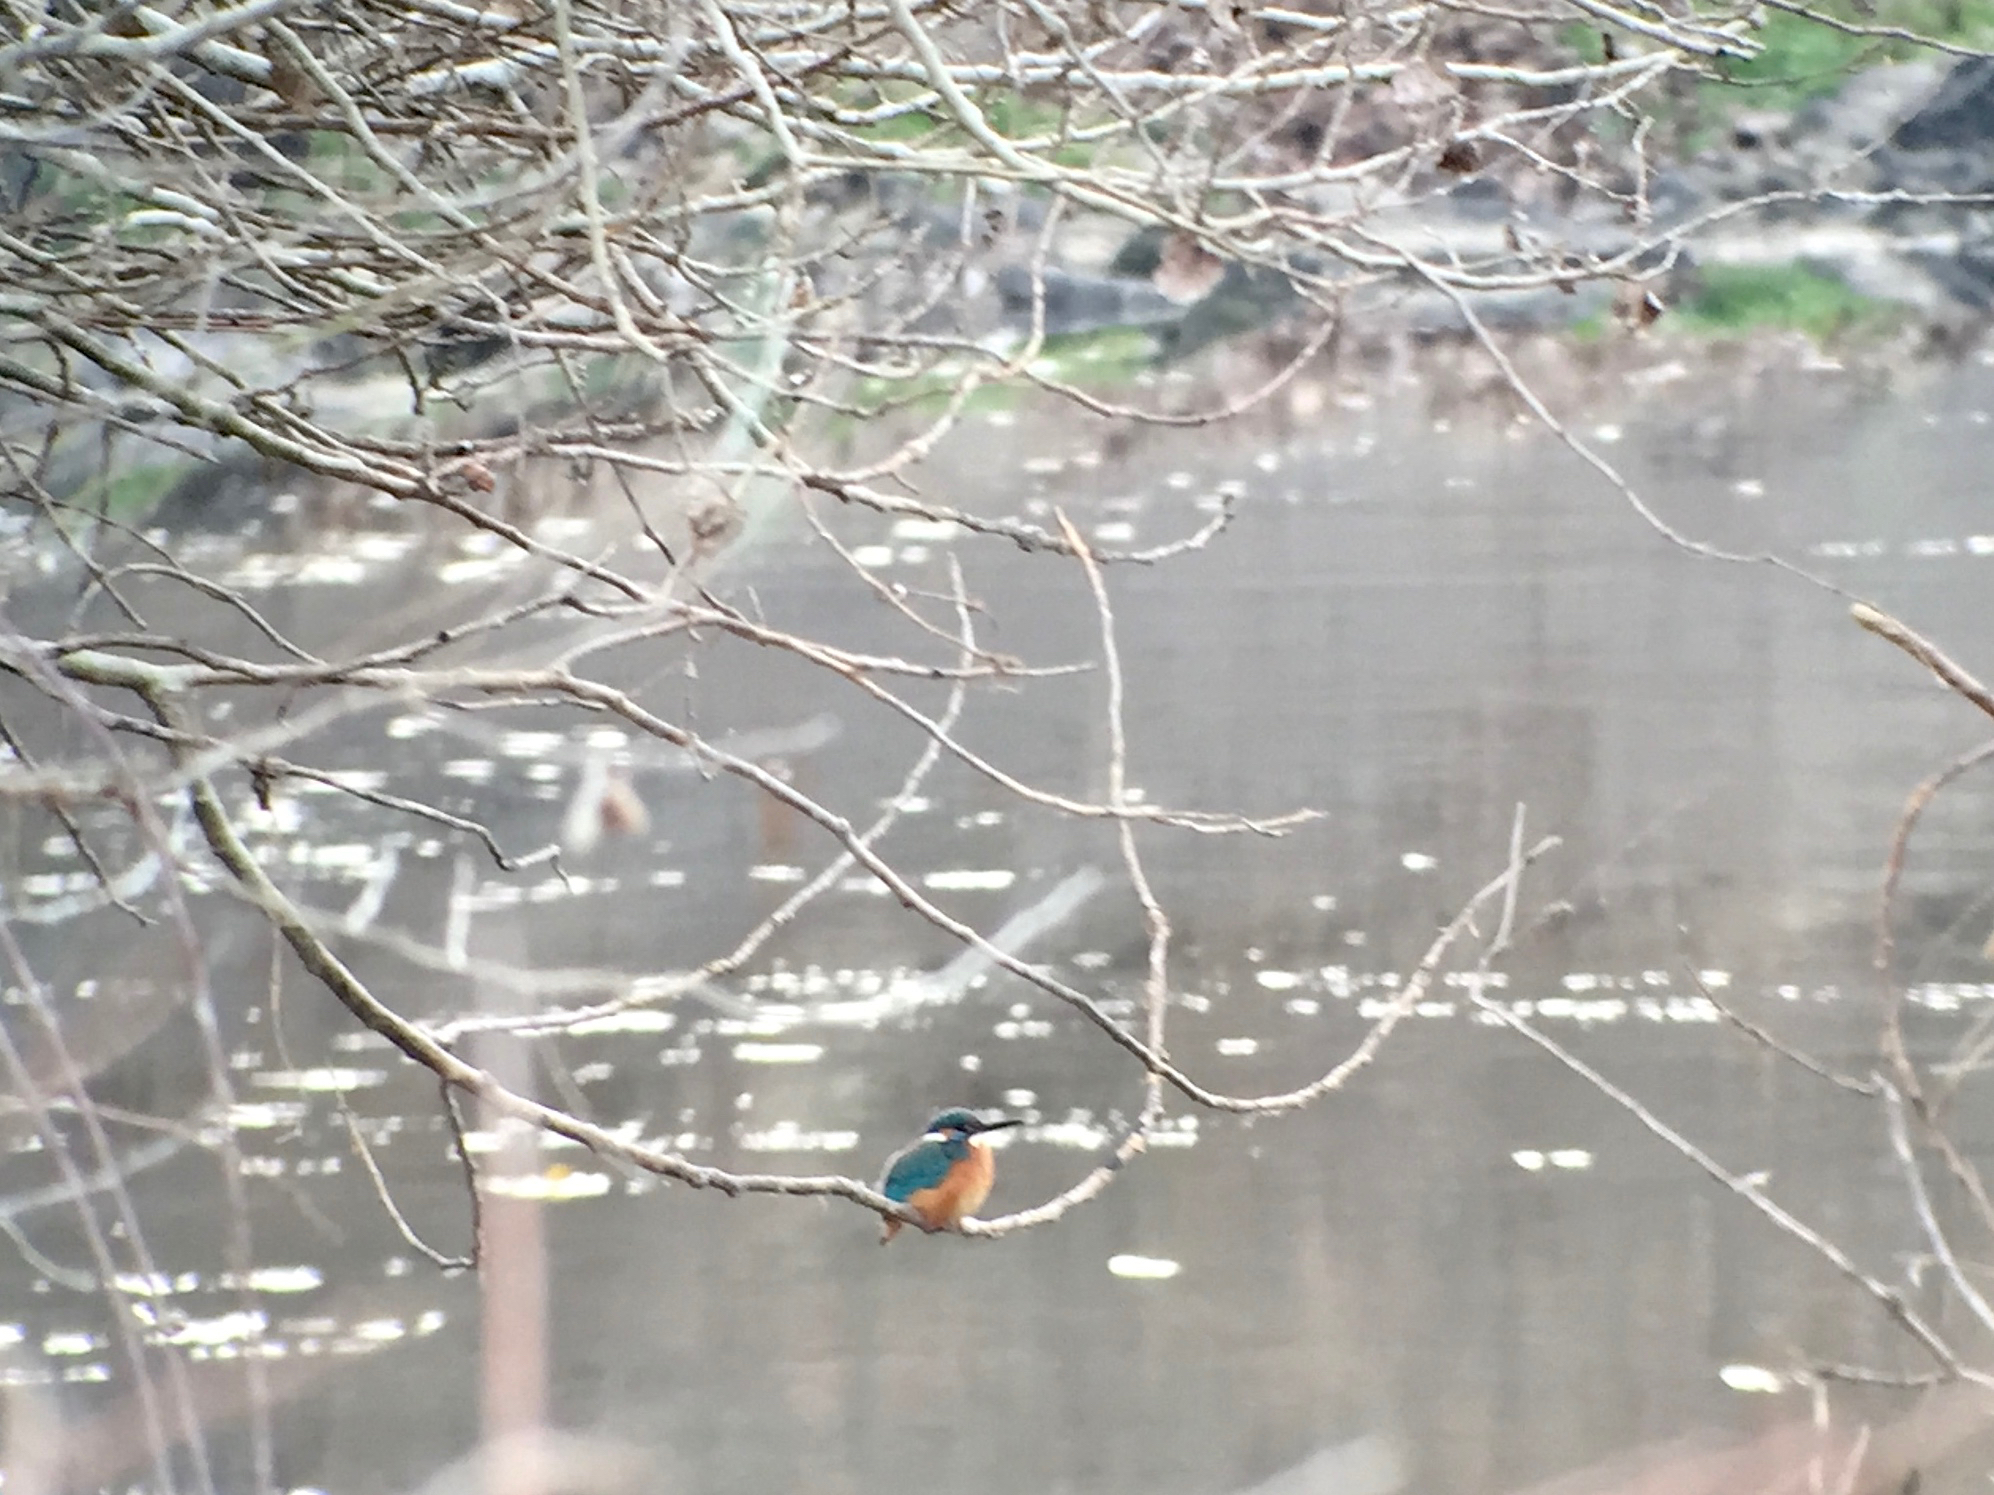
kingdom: Animalia
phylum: Chordata
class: Aves
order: Coraciiformes
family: Alcedinidae
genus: Alcedo
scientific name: Alcedo atthis
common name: Common kingfisher
